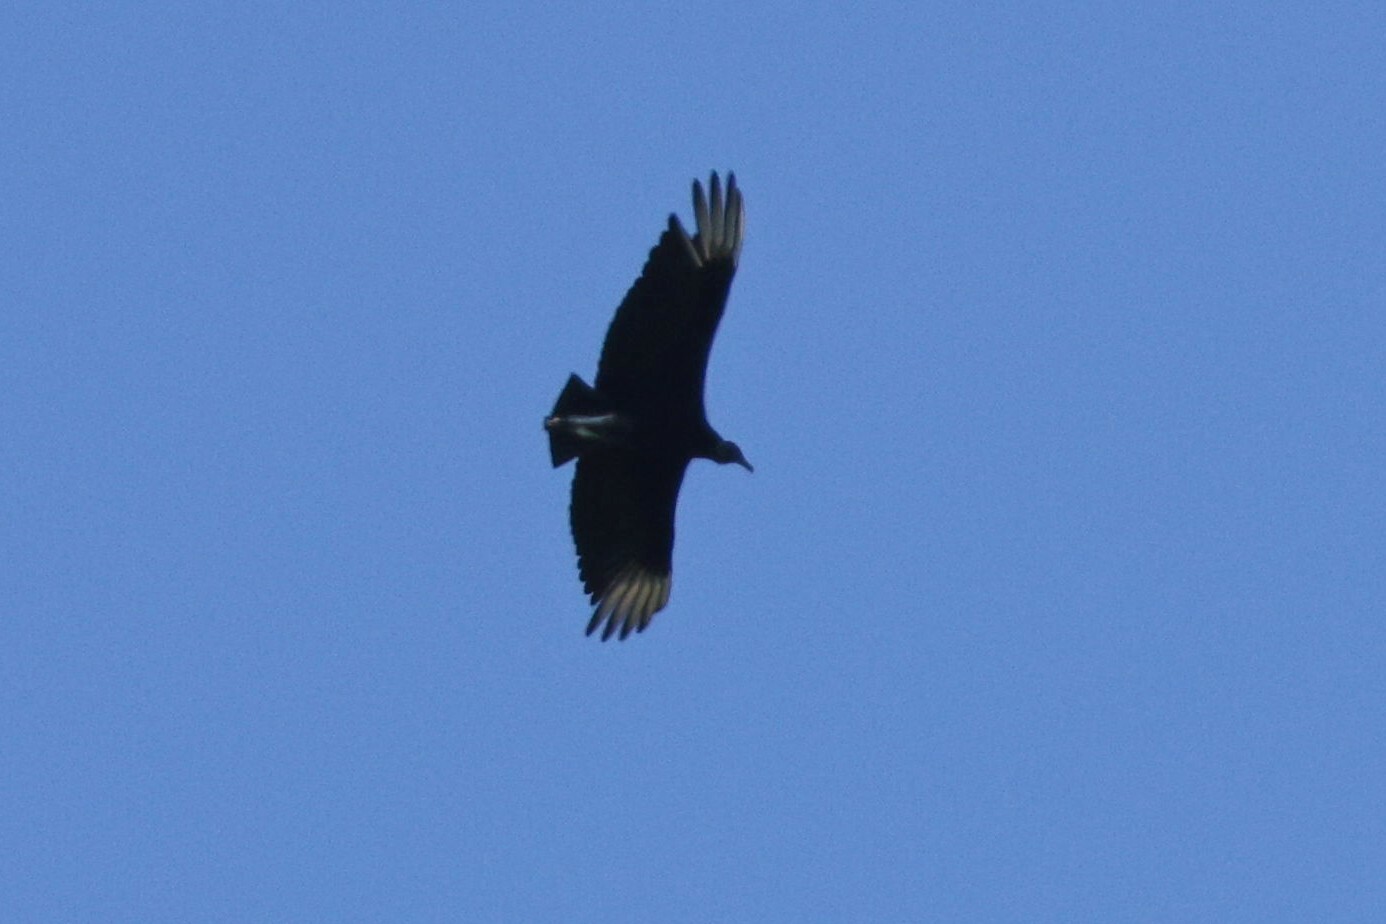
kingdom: Animalia
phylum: Chordata
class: Aves
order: Accipitriformes
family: Cathartidae
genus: Coragyps
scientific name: Coragyps atratus
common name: Black vulture
